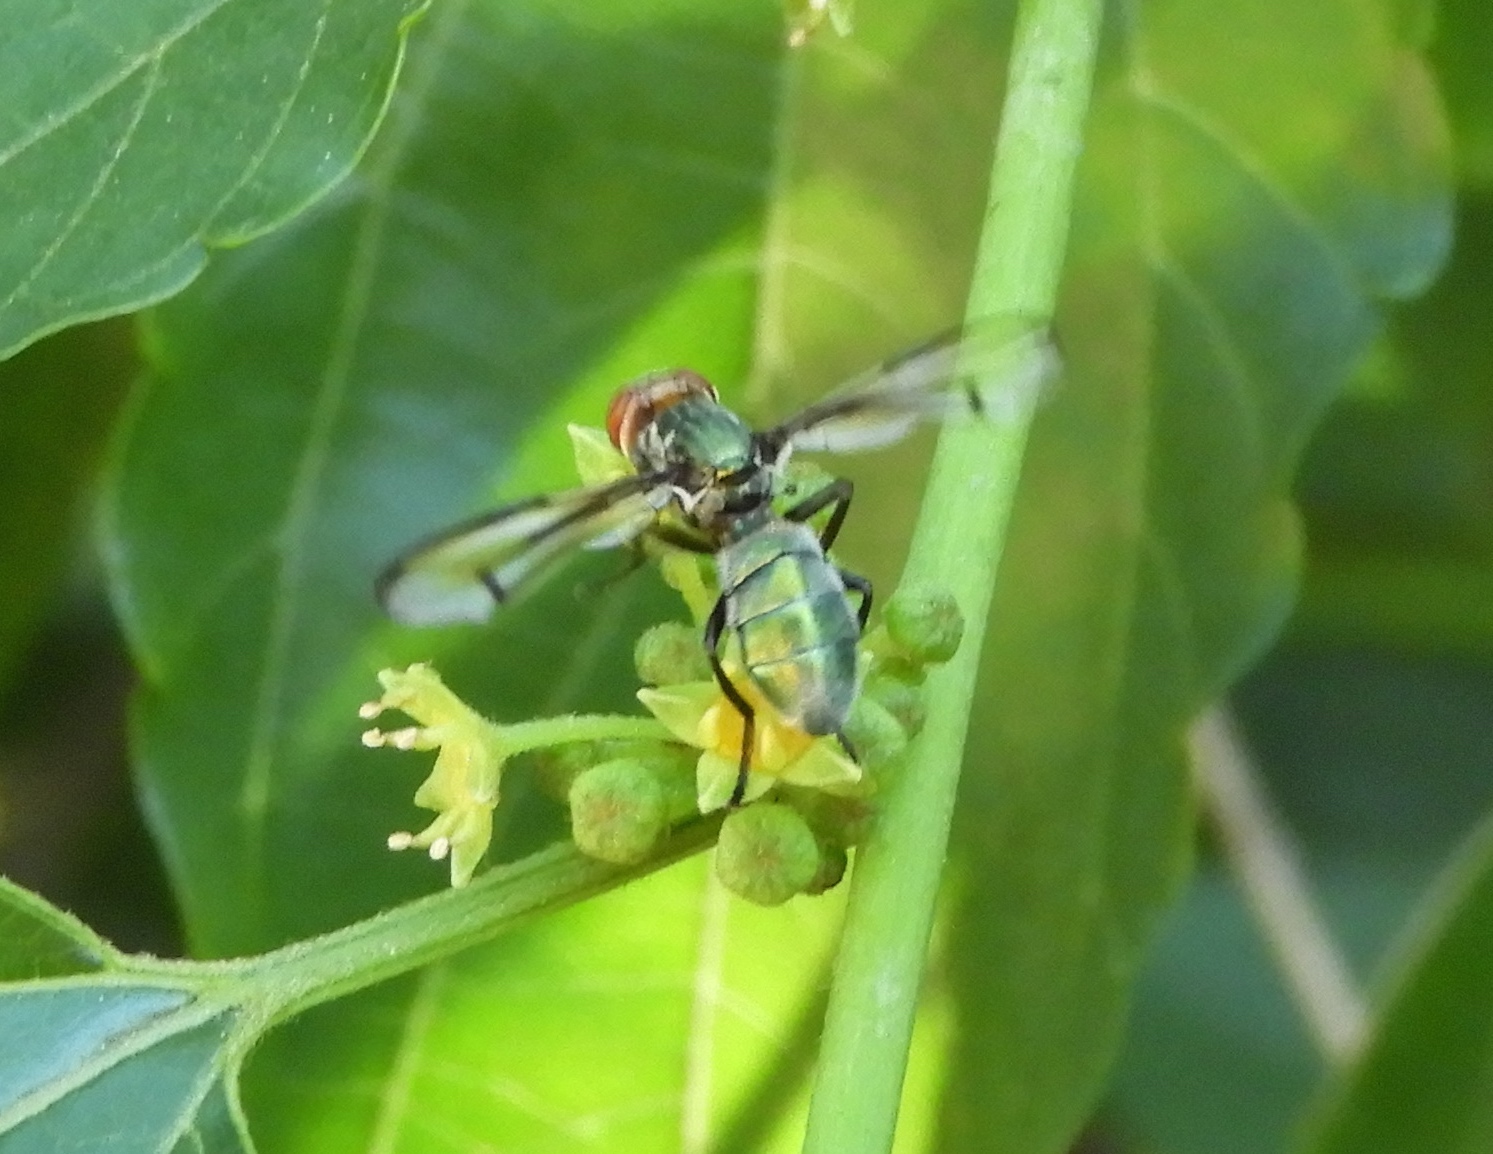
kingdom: Animalia
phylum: Arthropoda
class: Insecta
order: Diptera
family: Platystomatidae
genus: Senopterina
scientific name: Senopterina
